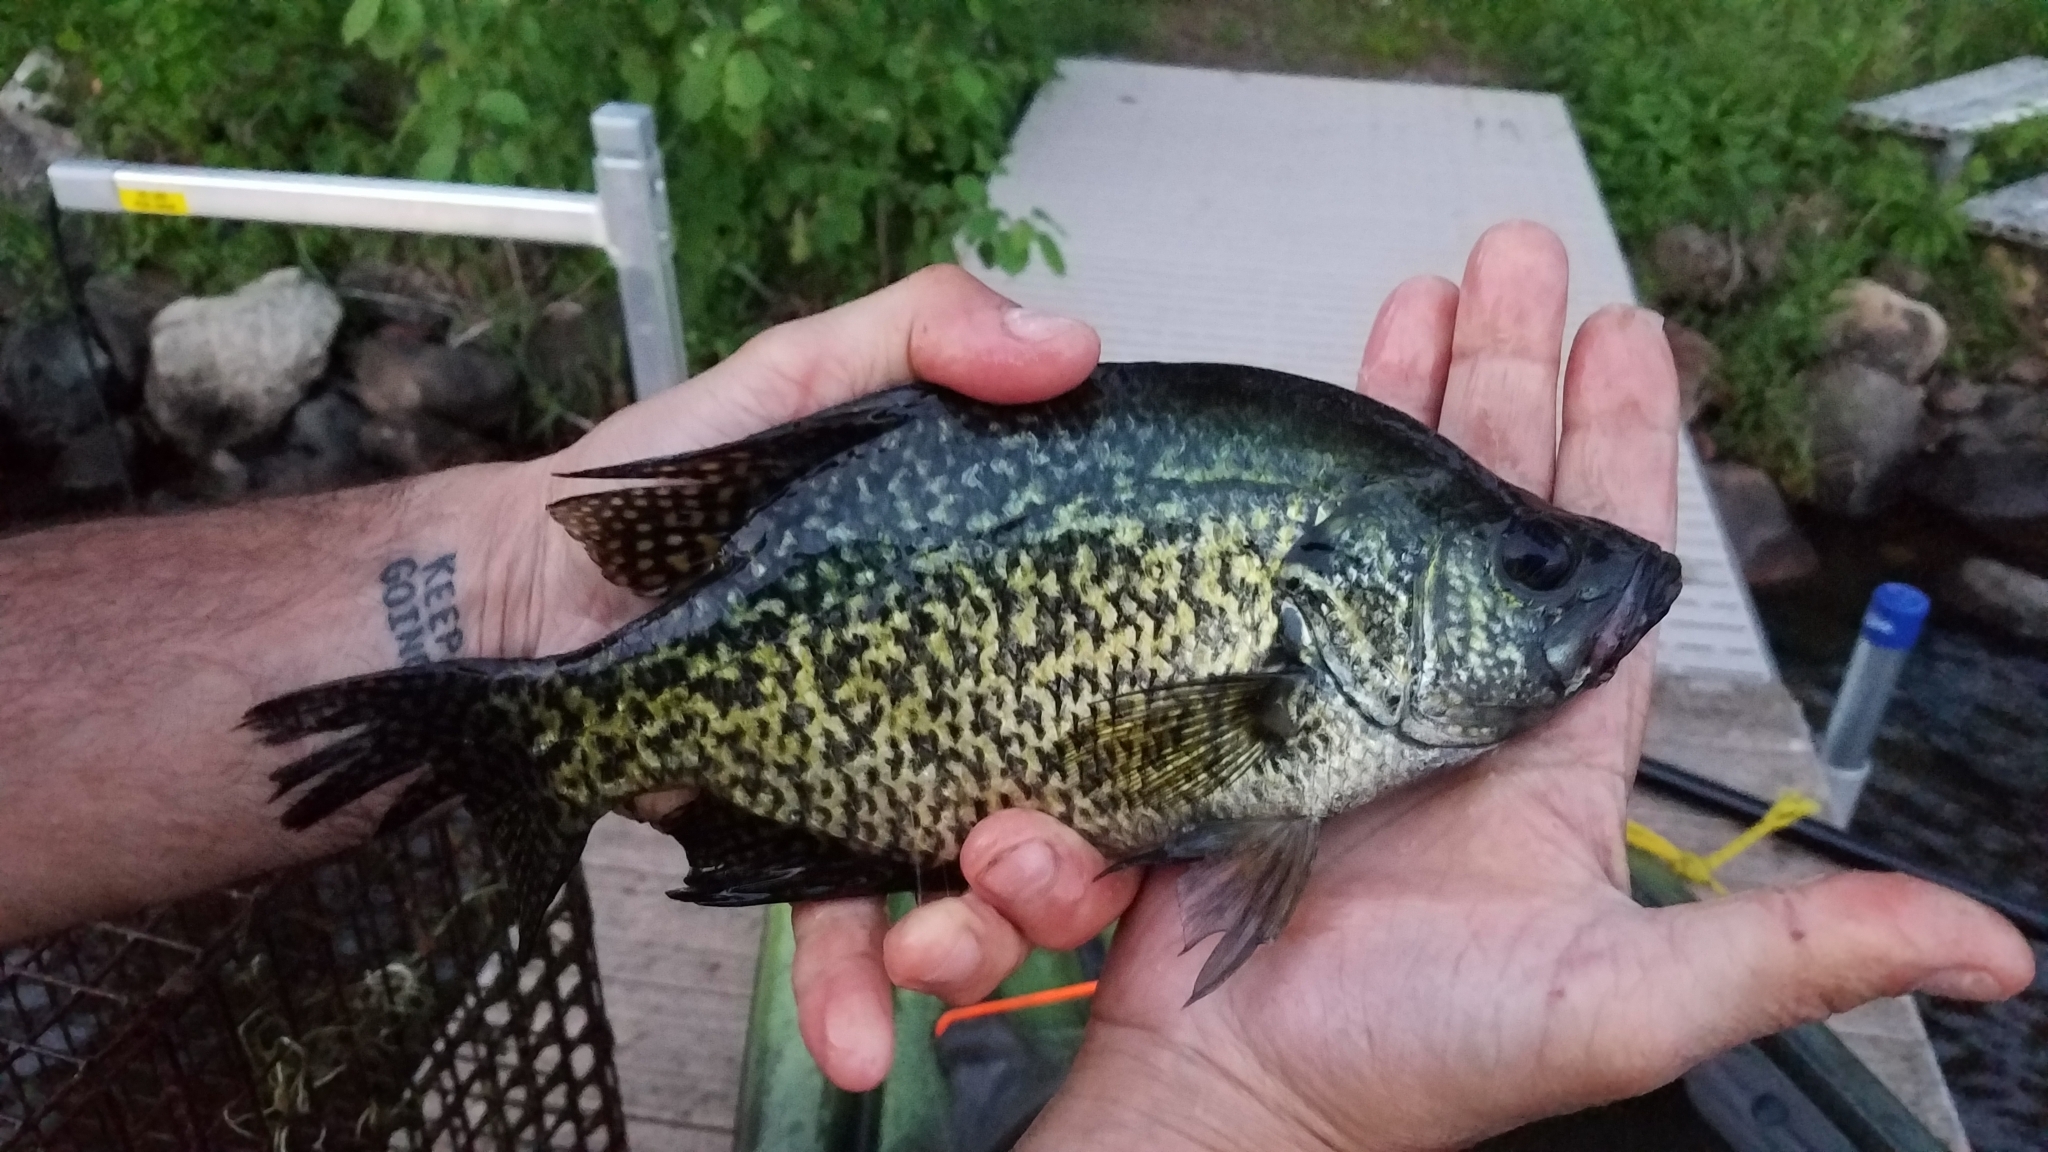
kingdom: Animalia
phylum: Chordata
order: Perciformes
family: Centrarchidae
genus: Pomoxis
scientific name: Pomoxis nigromaculatus
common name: Black crappie
